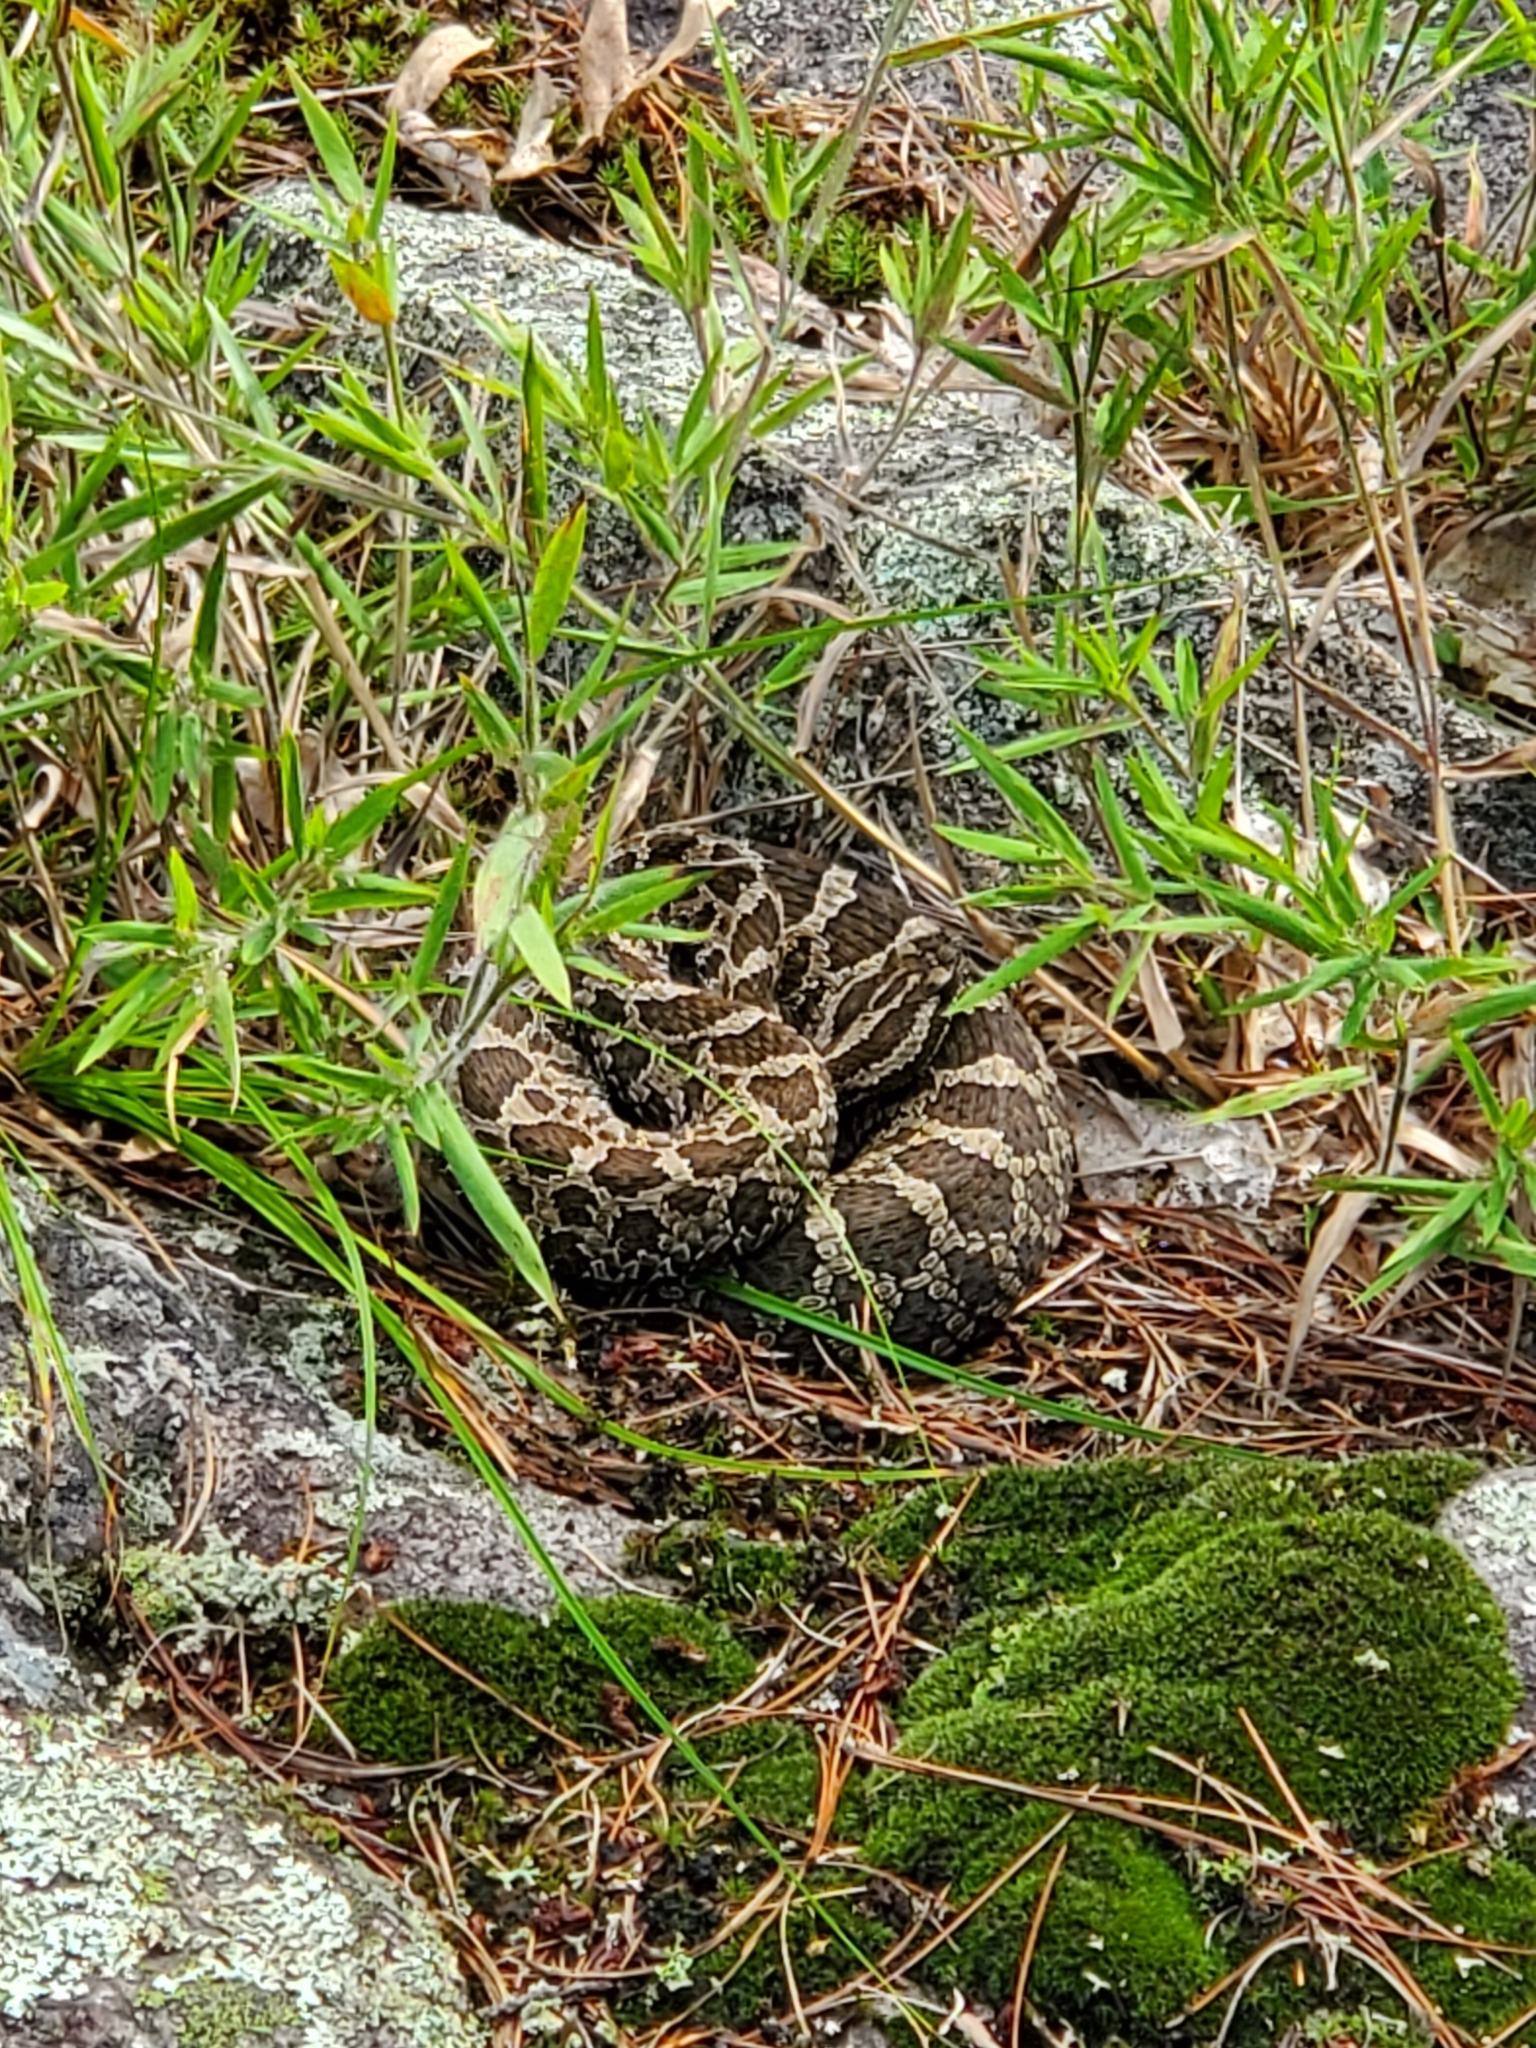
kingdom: Animalia
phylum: Chordata
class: Squamata
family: Viperidae
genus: Sistrurus
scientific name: Sistrurus catenatus
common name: Massasauga
